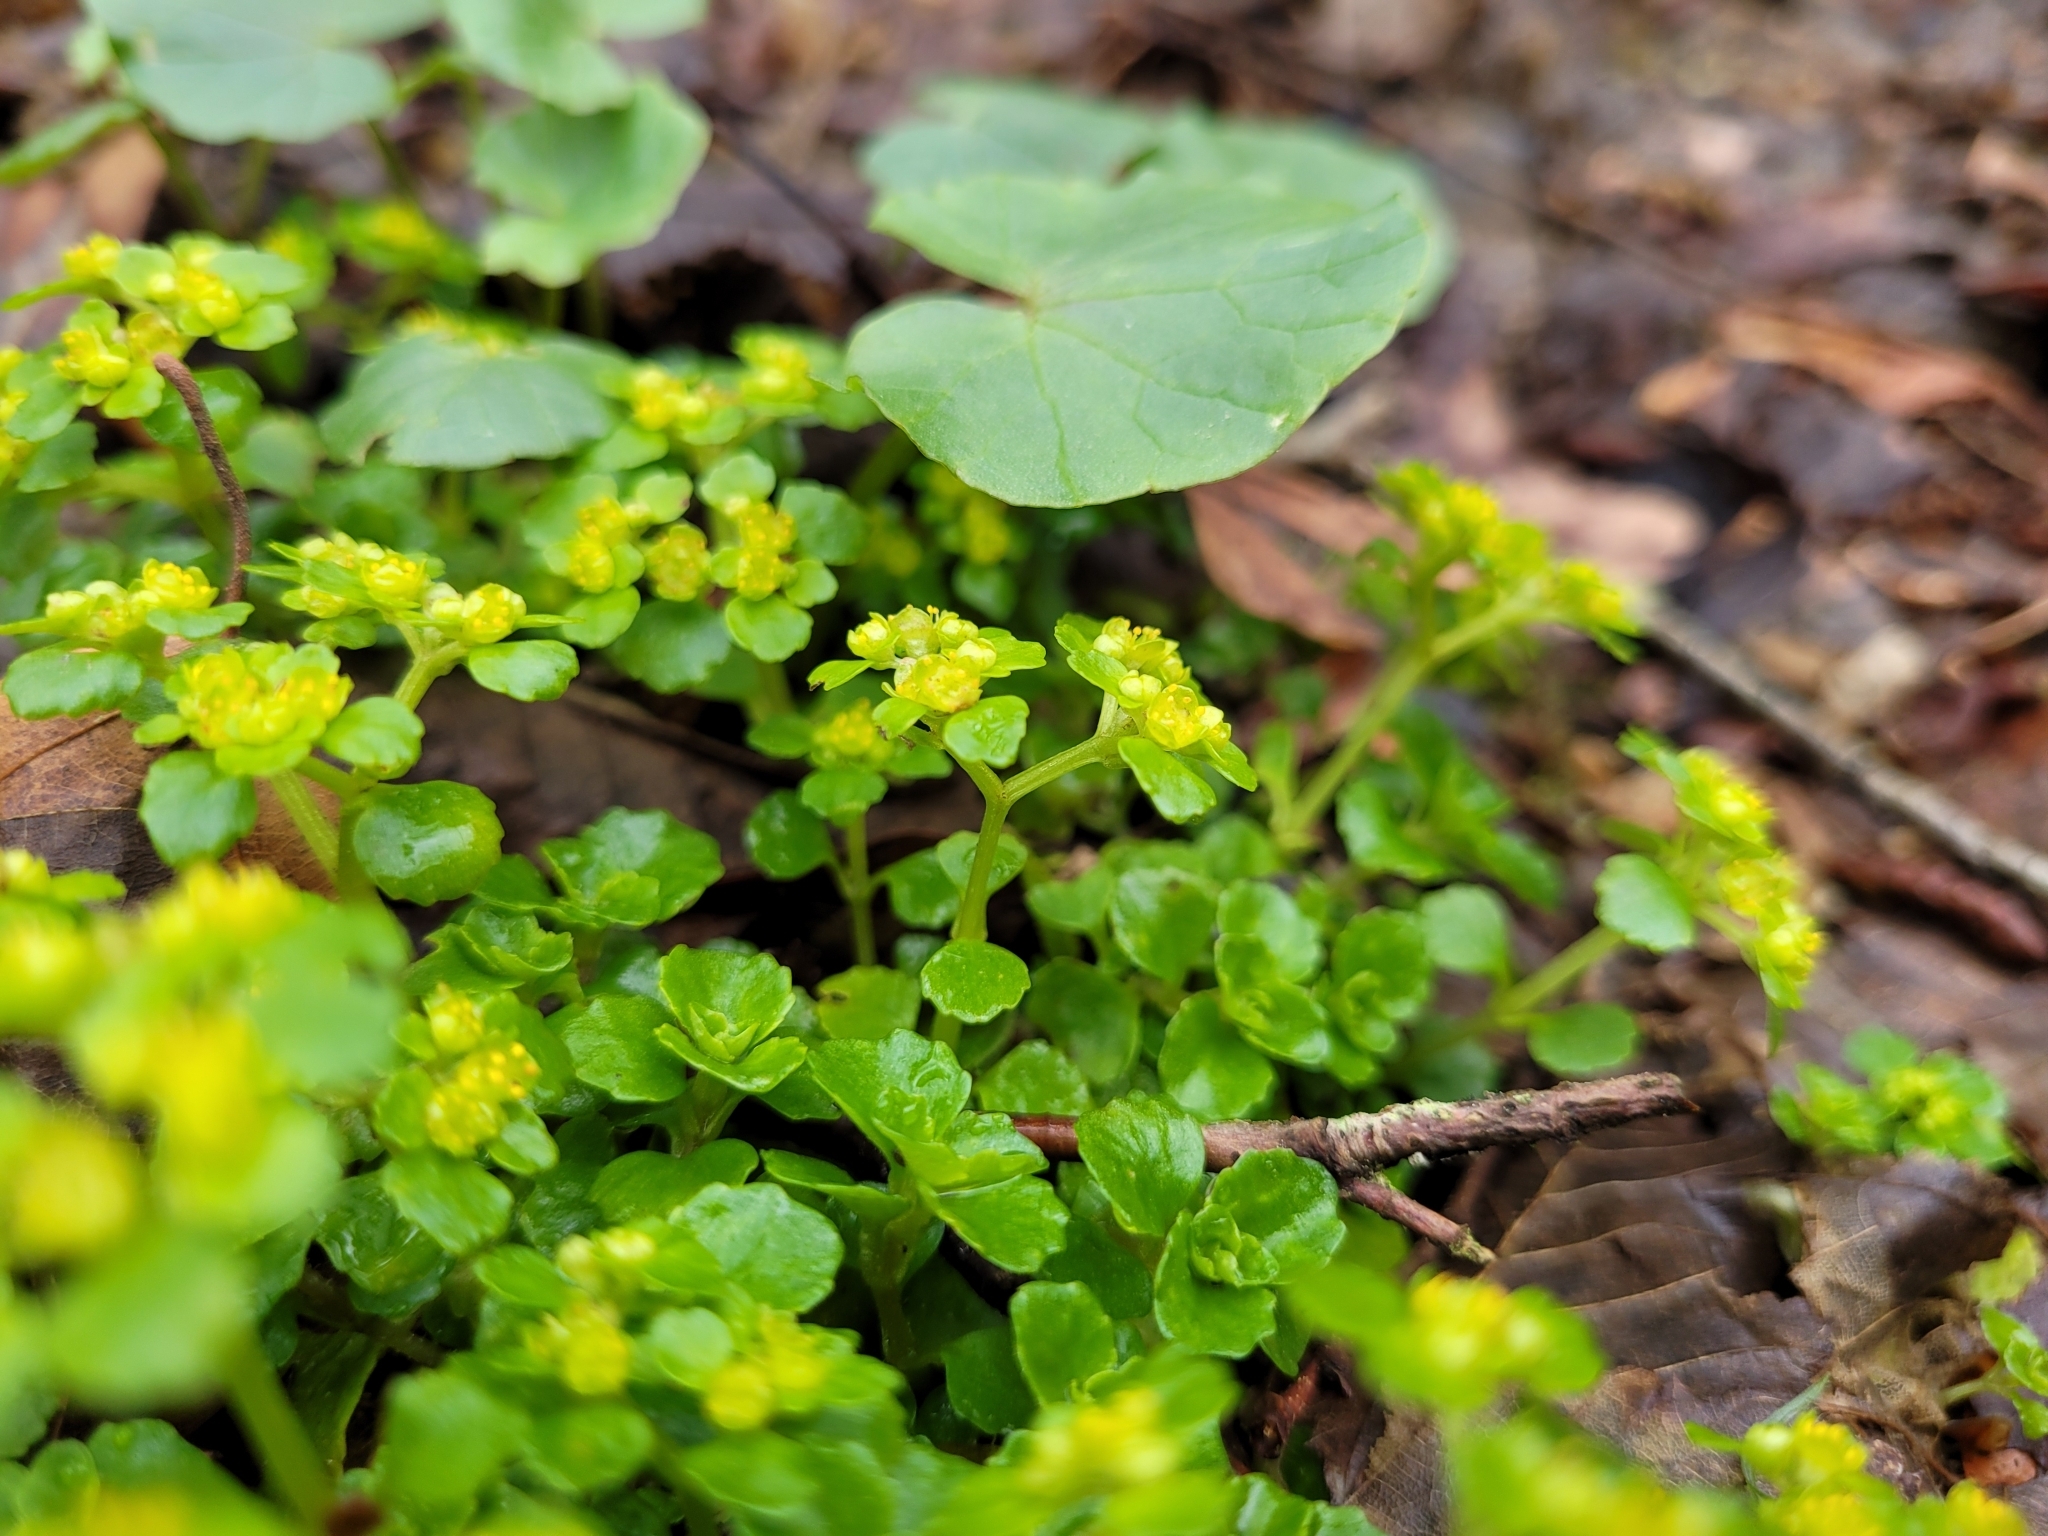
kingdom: Plantae
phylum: Tracheophyta
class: Magnoliopsida
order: Saxifragales
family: Saxifragaceae
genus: Chrysosplenium
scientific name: Chrysosplenium oppositifolium
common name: Opposite-leaved golden-saxifrage
